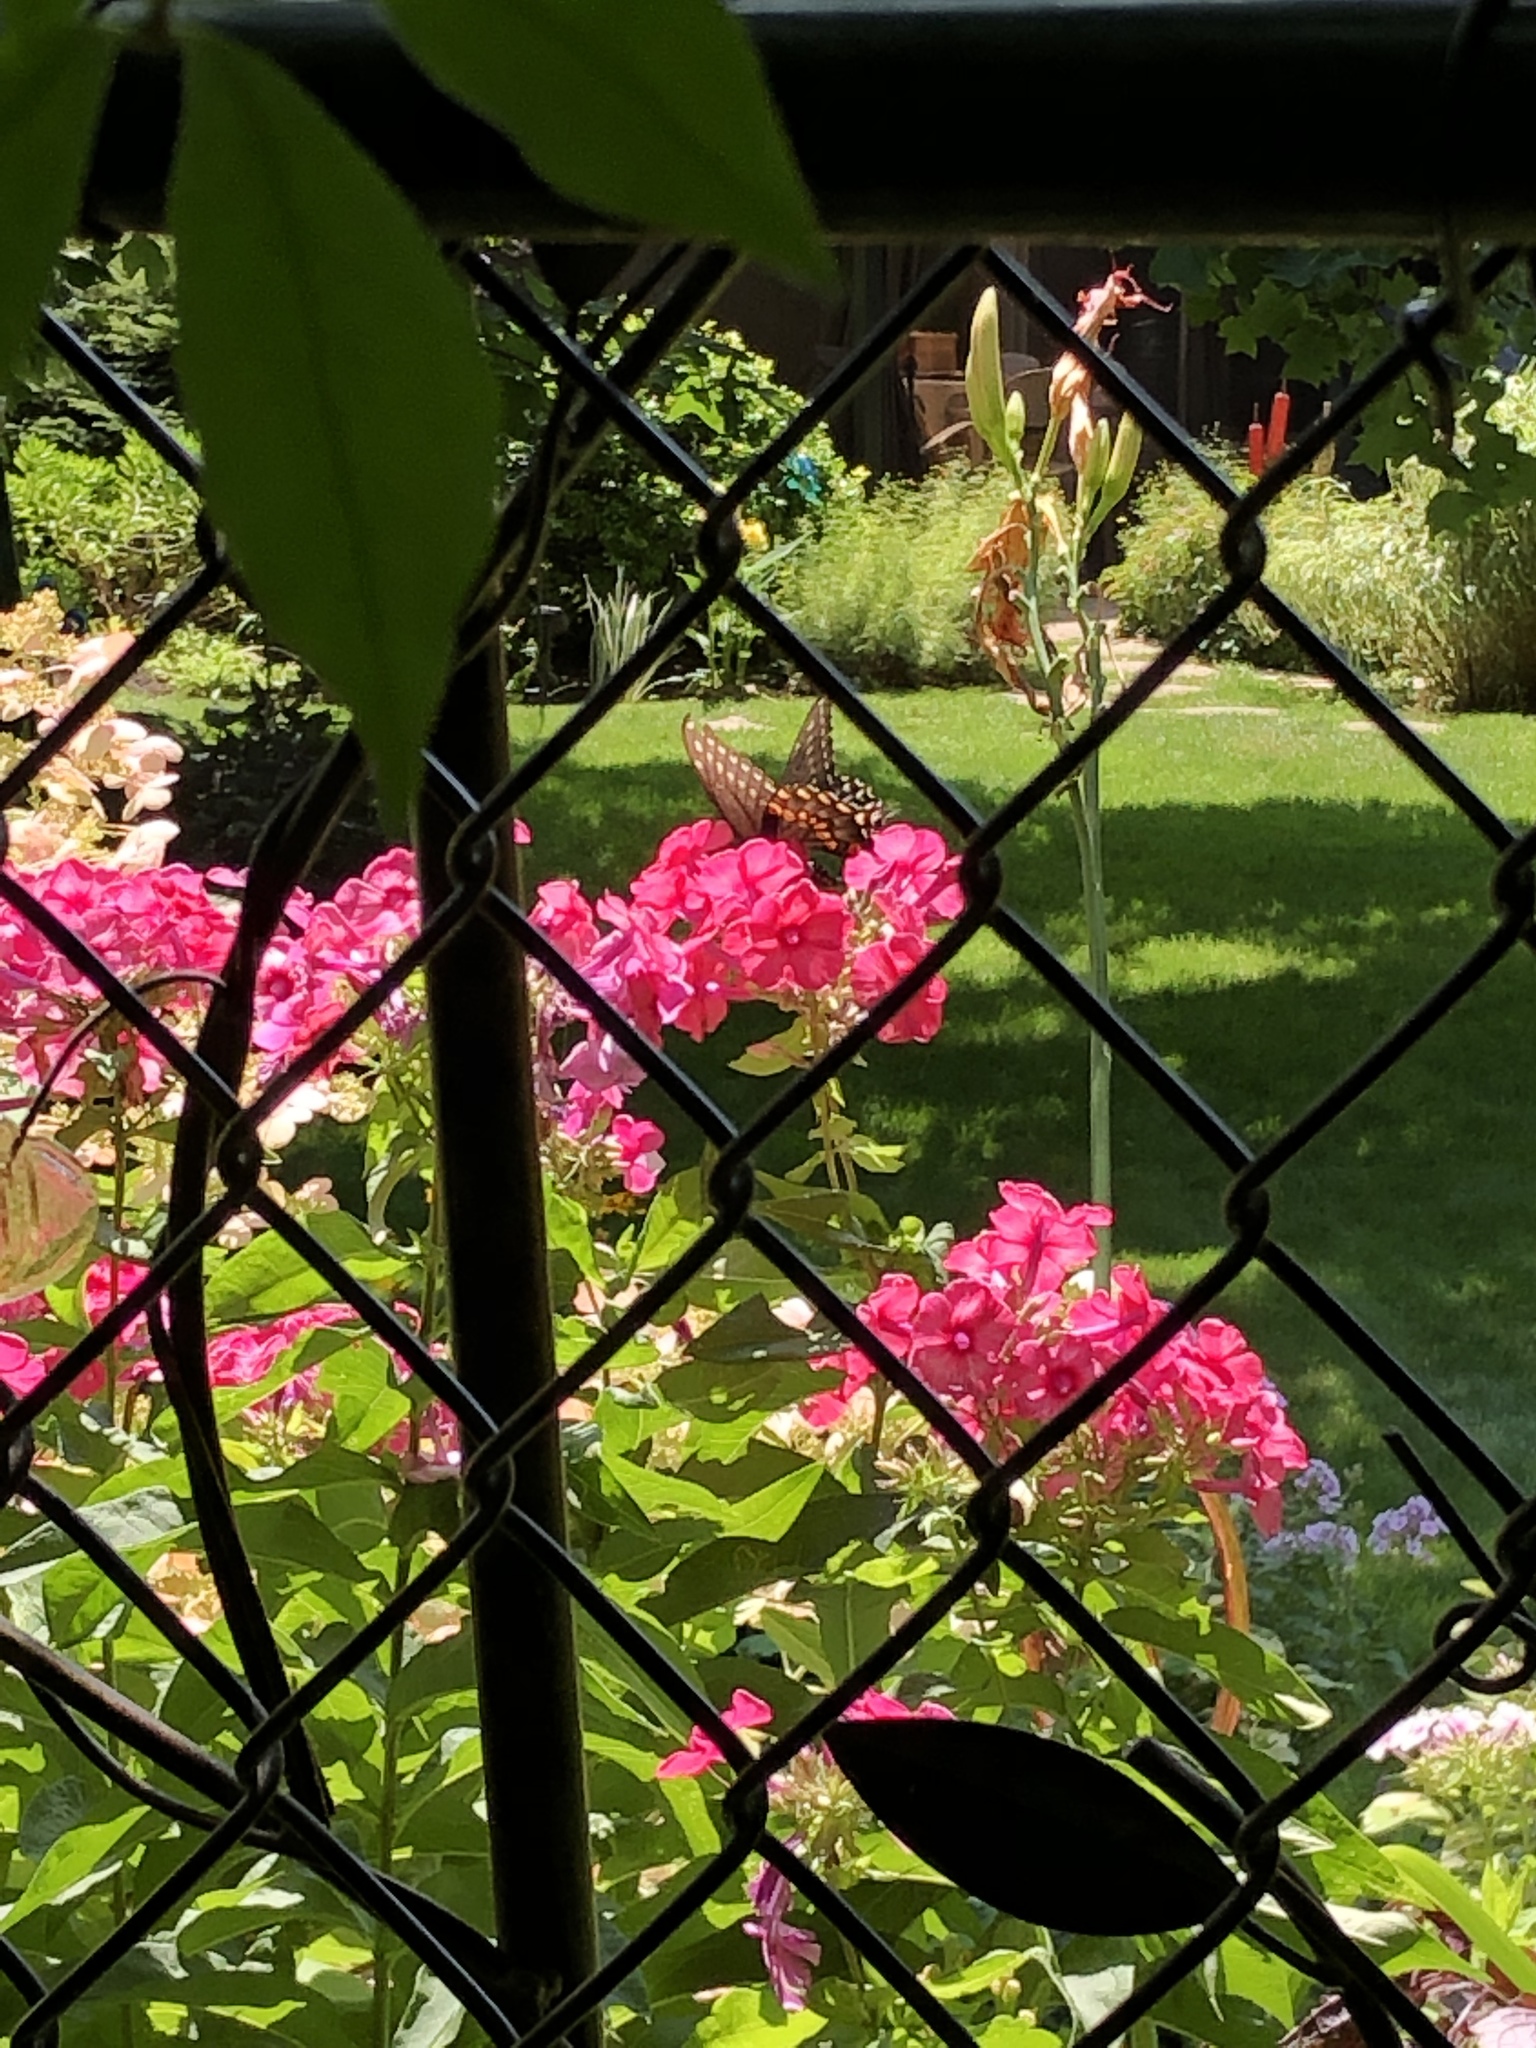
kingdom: Animalia
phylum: Arthropoda
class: Insecta
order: Lepidoptera
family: Papilionidae
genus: Papilio
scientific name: Papilio polyxenes
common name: Black swallowtail
